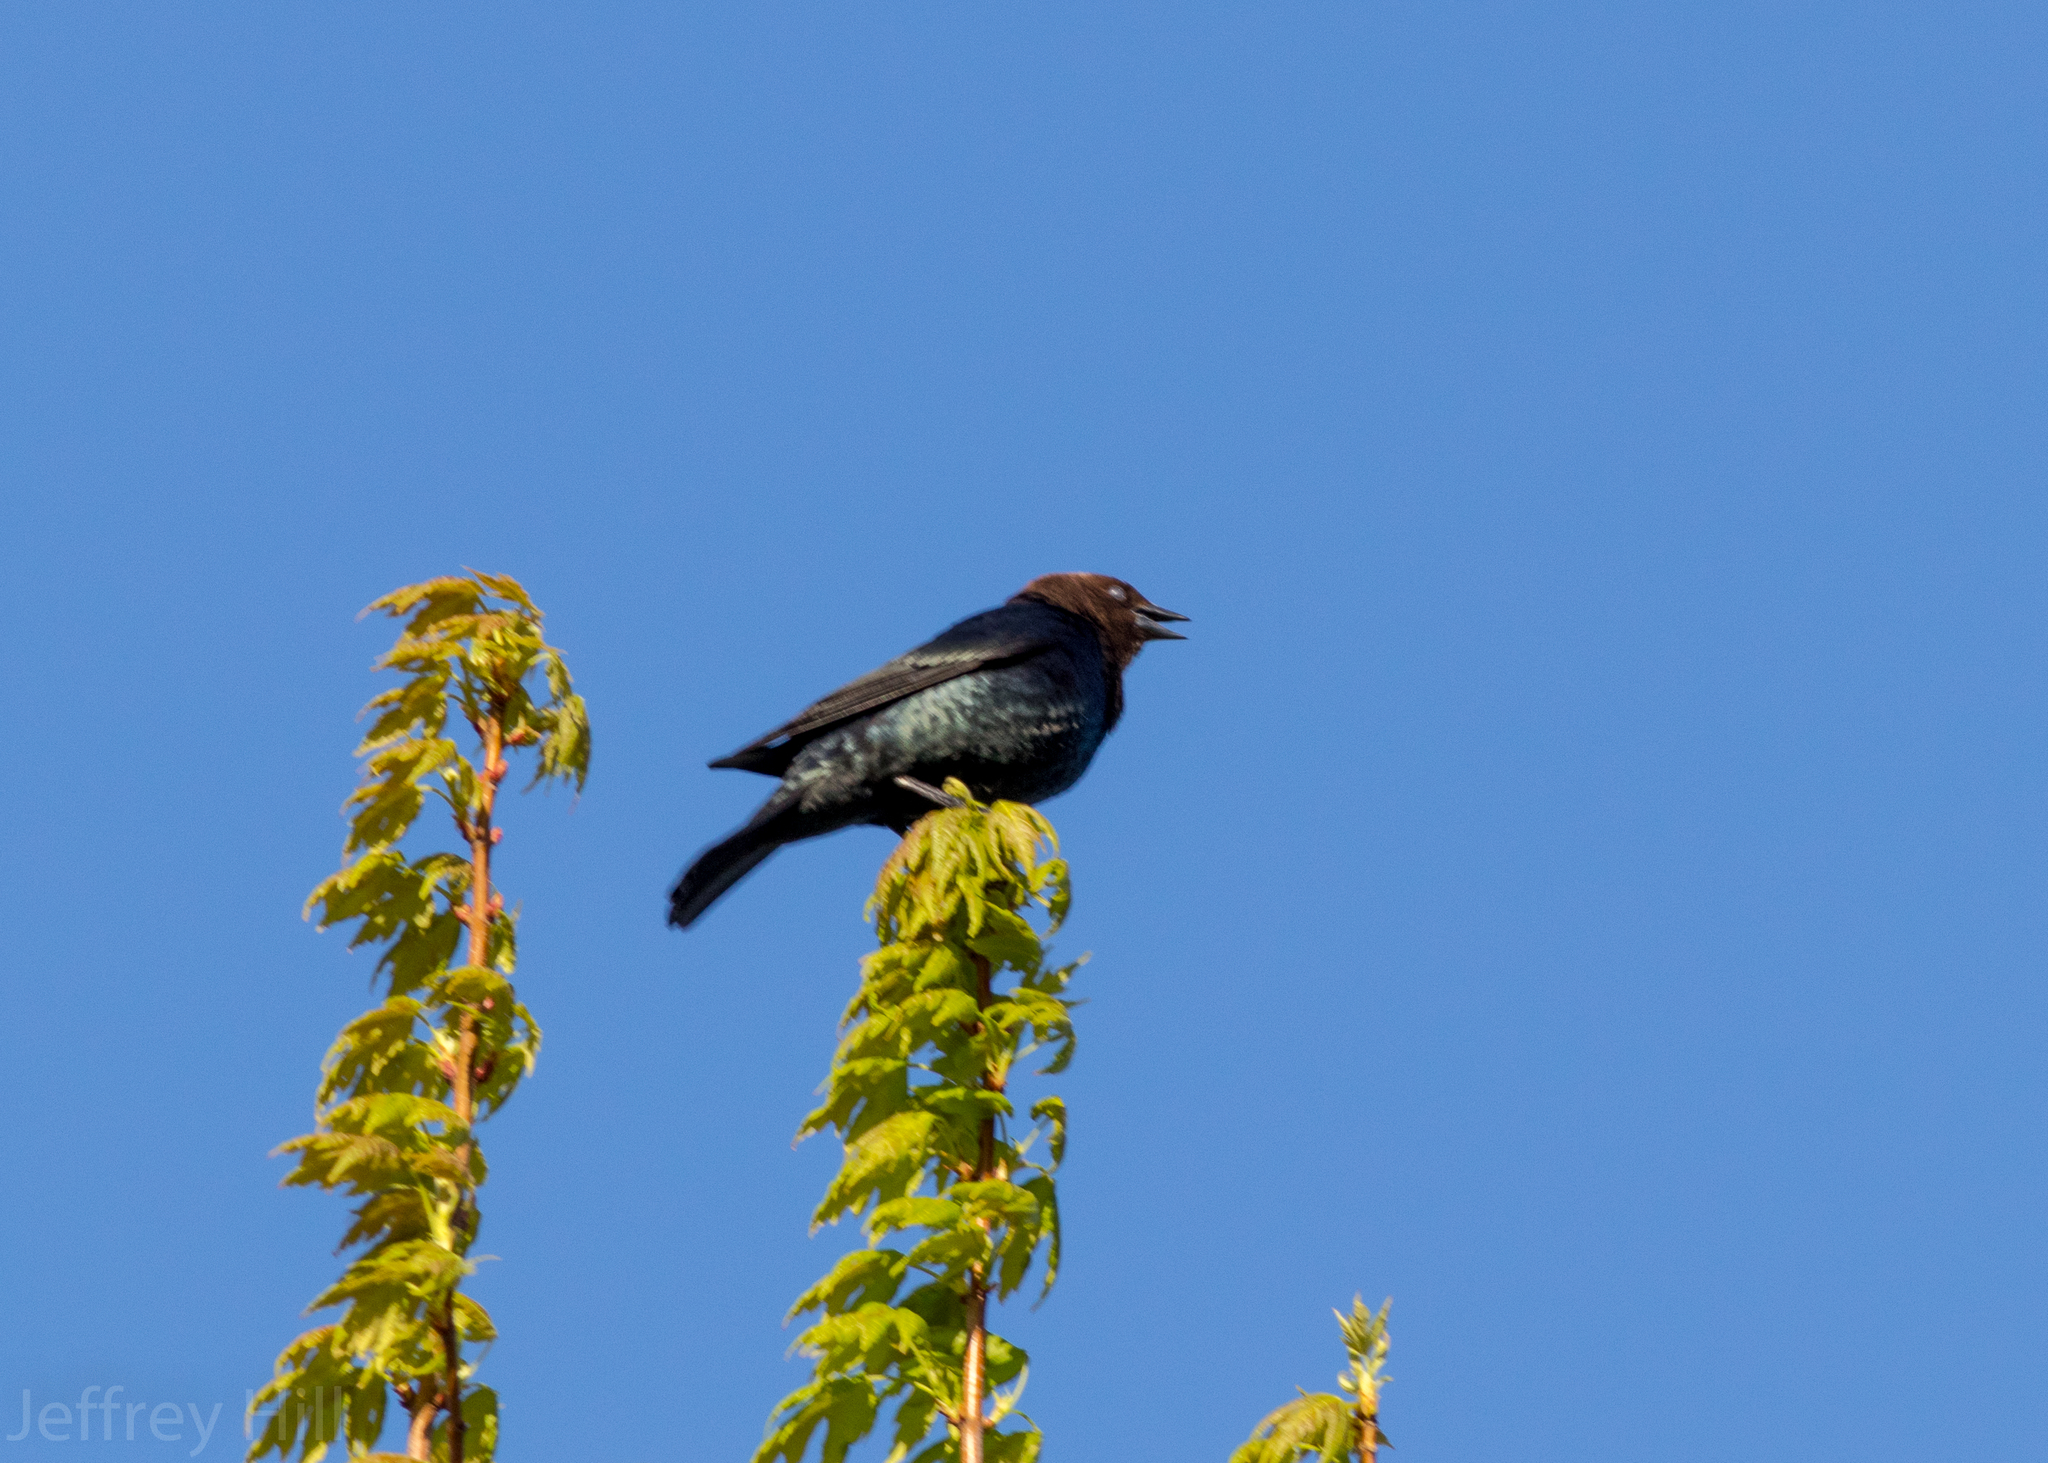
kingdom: Animalia
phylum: Chordata
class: Aves
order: Passeriformes
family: Icteridae
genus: Molothrus
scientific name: Molothrus ater
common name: Brown-headed cowbird
